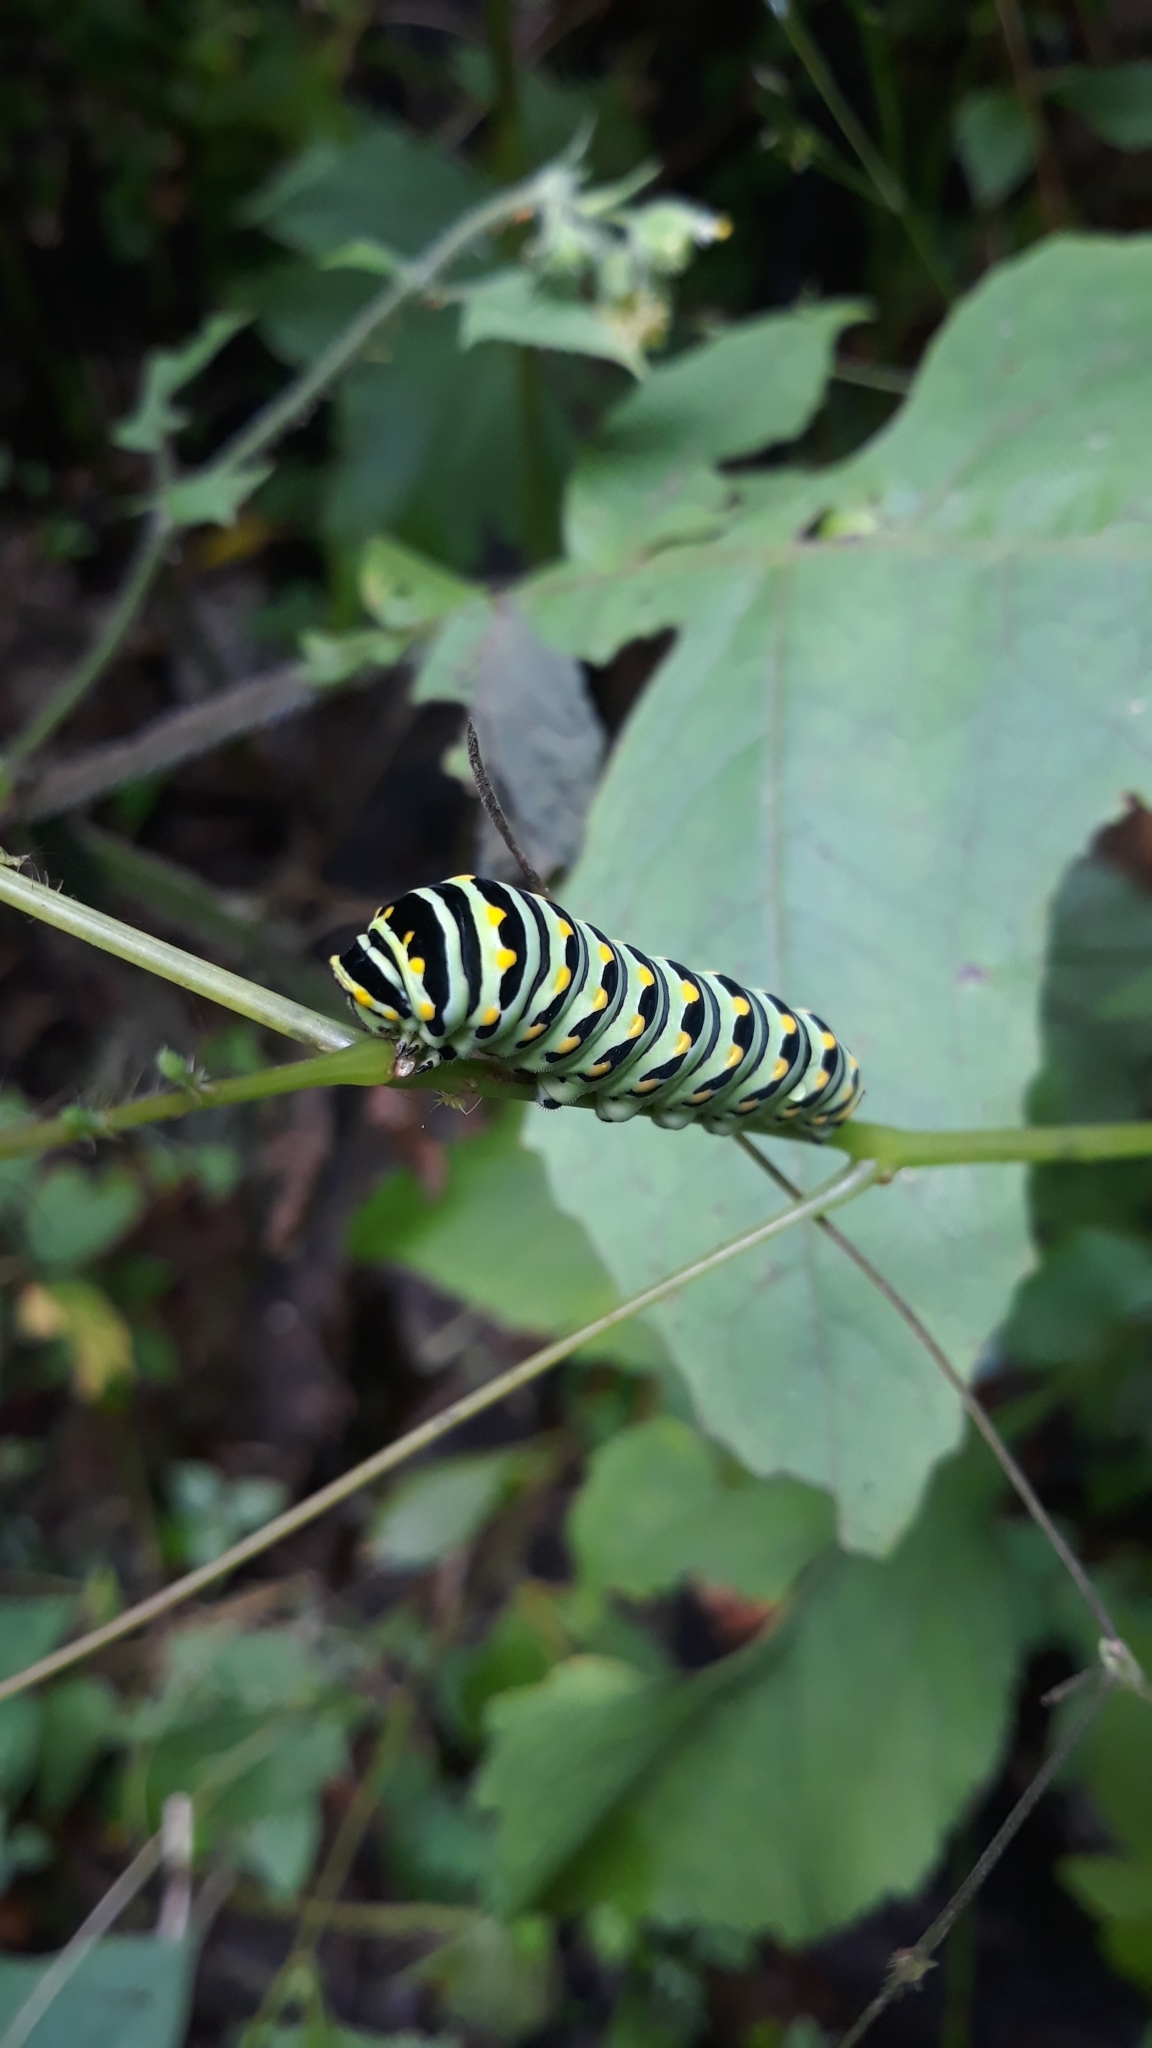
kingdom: Animalia
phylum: Arthropoda
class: Insecta
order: Lepidoptera
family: Papilionidae
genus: Papilio
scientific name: Papilio polyxenes
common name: Black swallowtail
